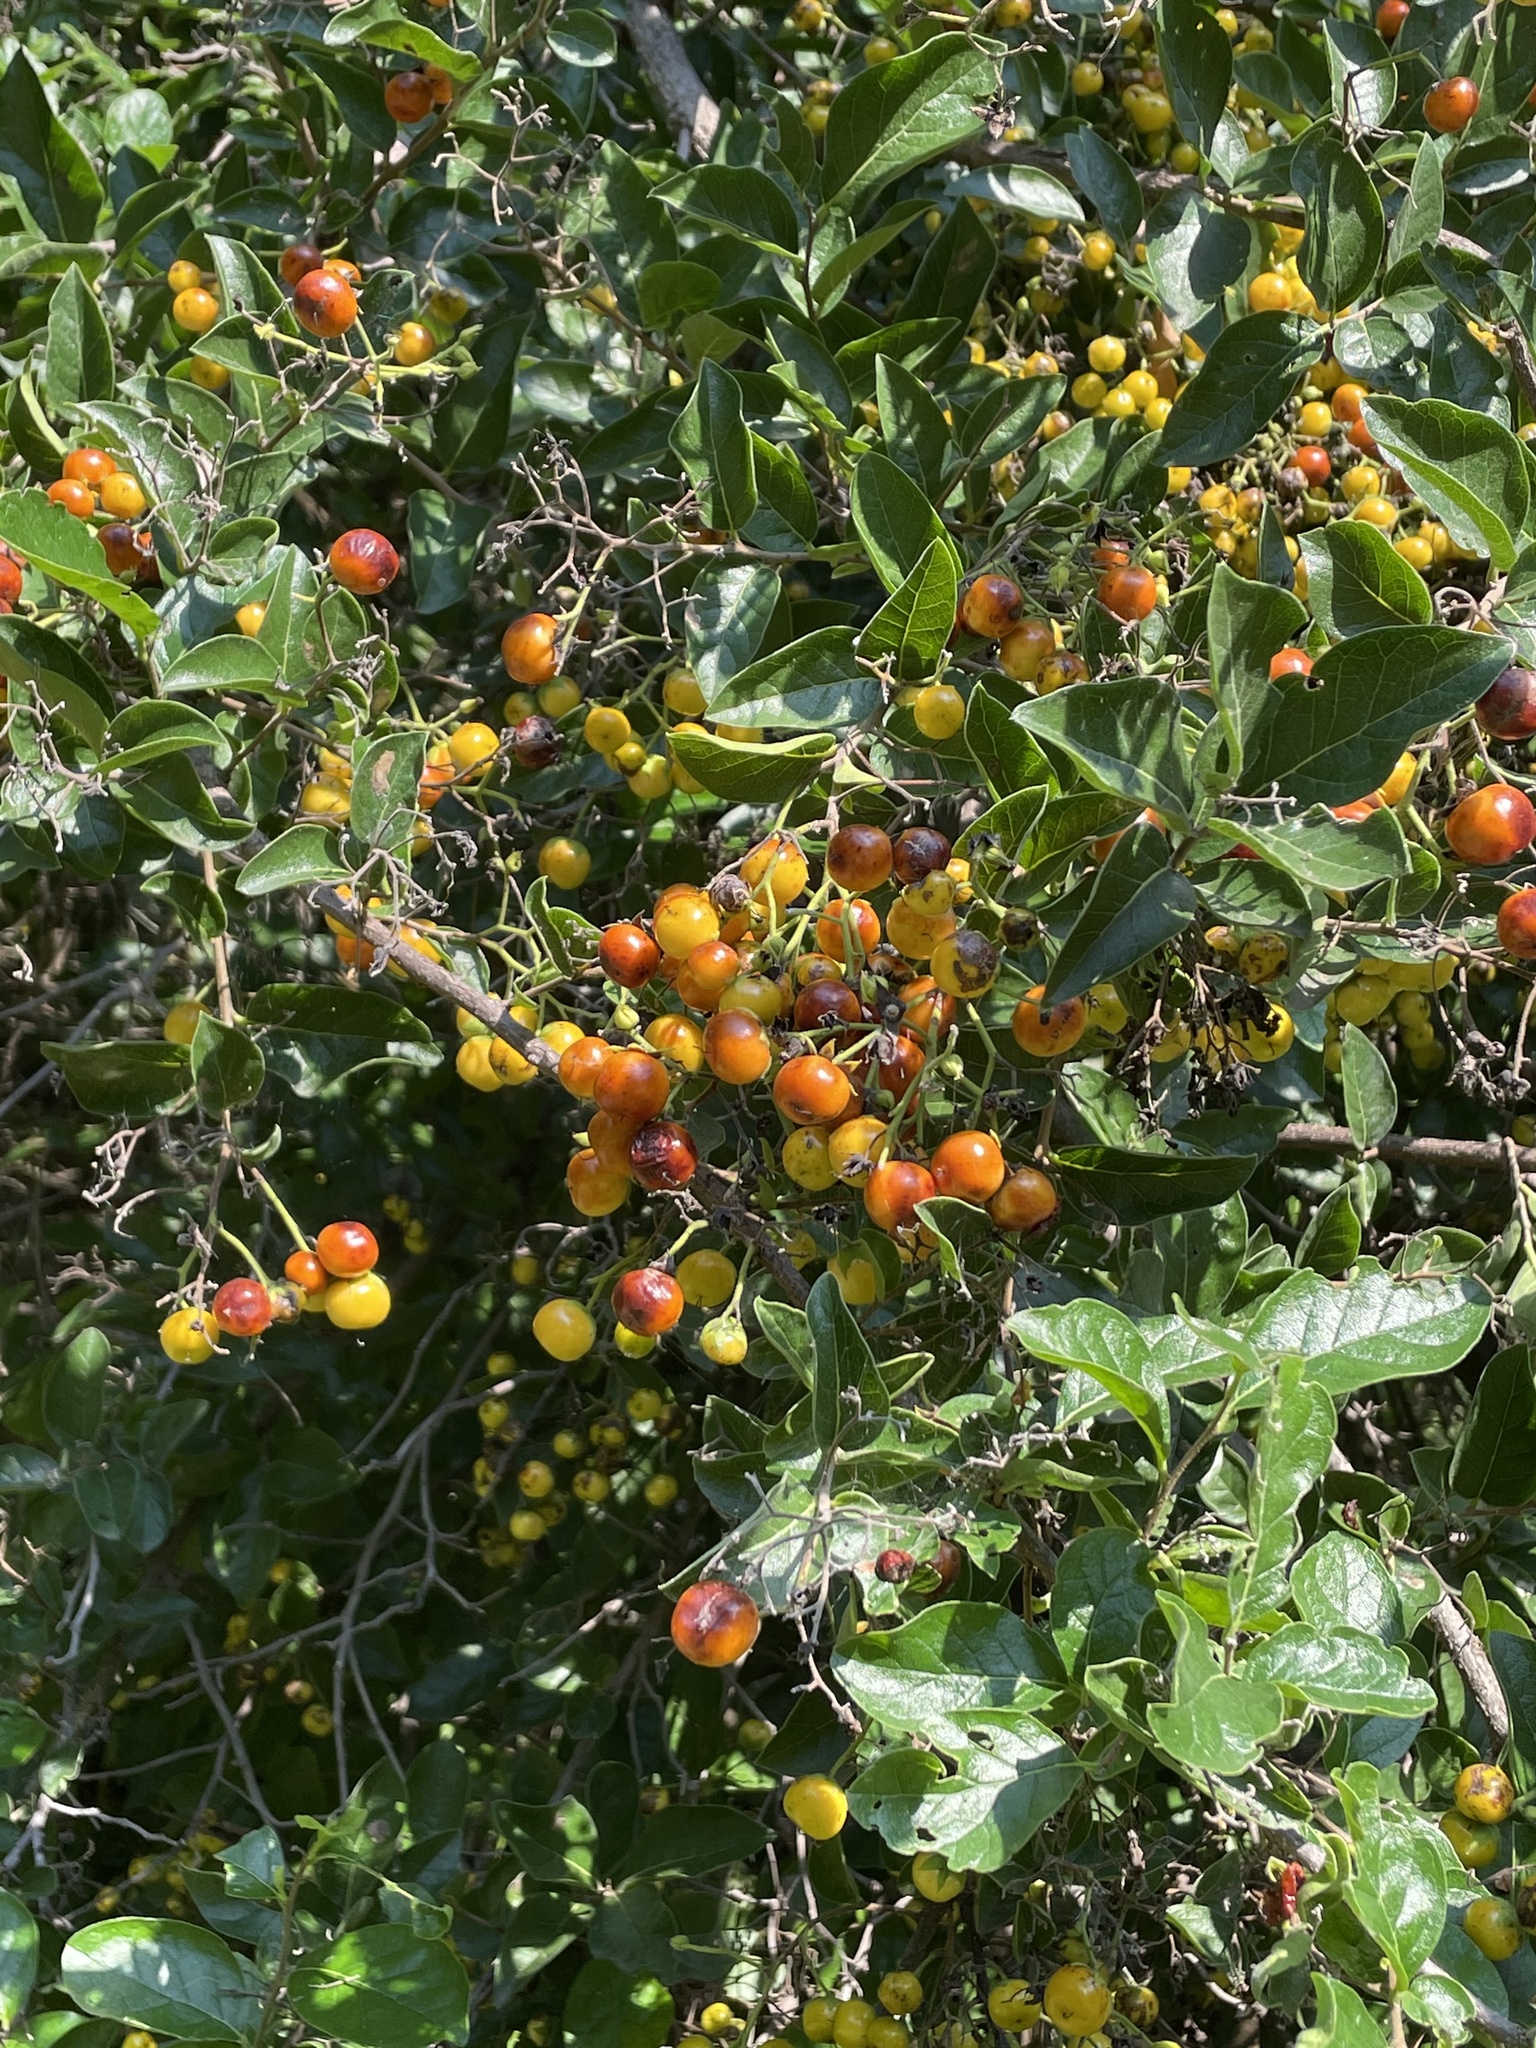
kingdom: Plantae
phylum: Tracheophyta
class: Magnoliopsida
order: Boraginales
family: Ehretiaceae
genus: Ehretia
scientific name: Ehretia anacua
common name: Sugarberry
